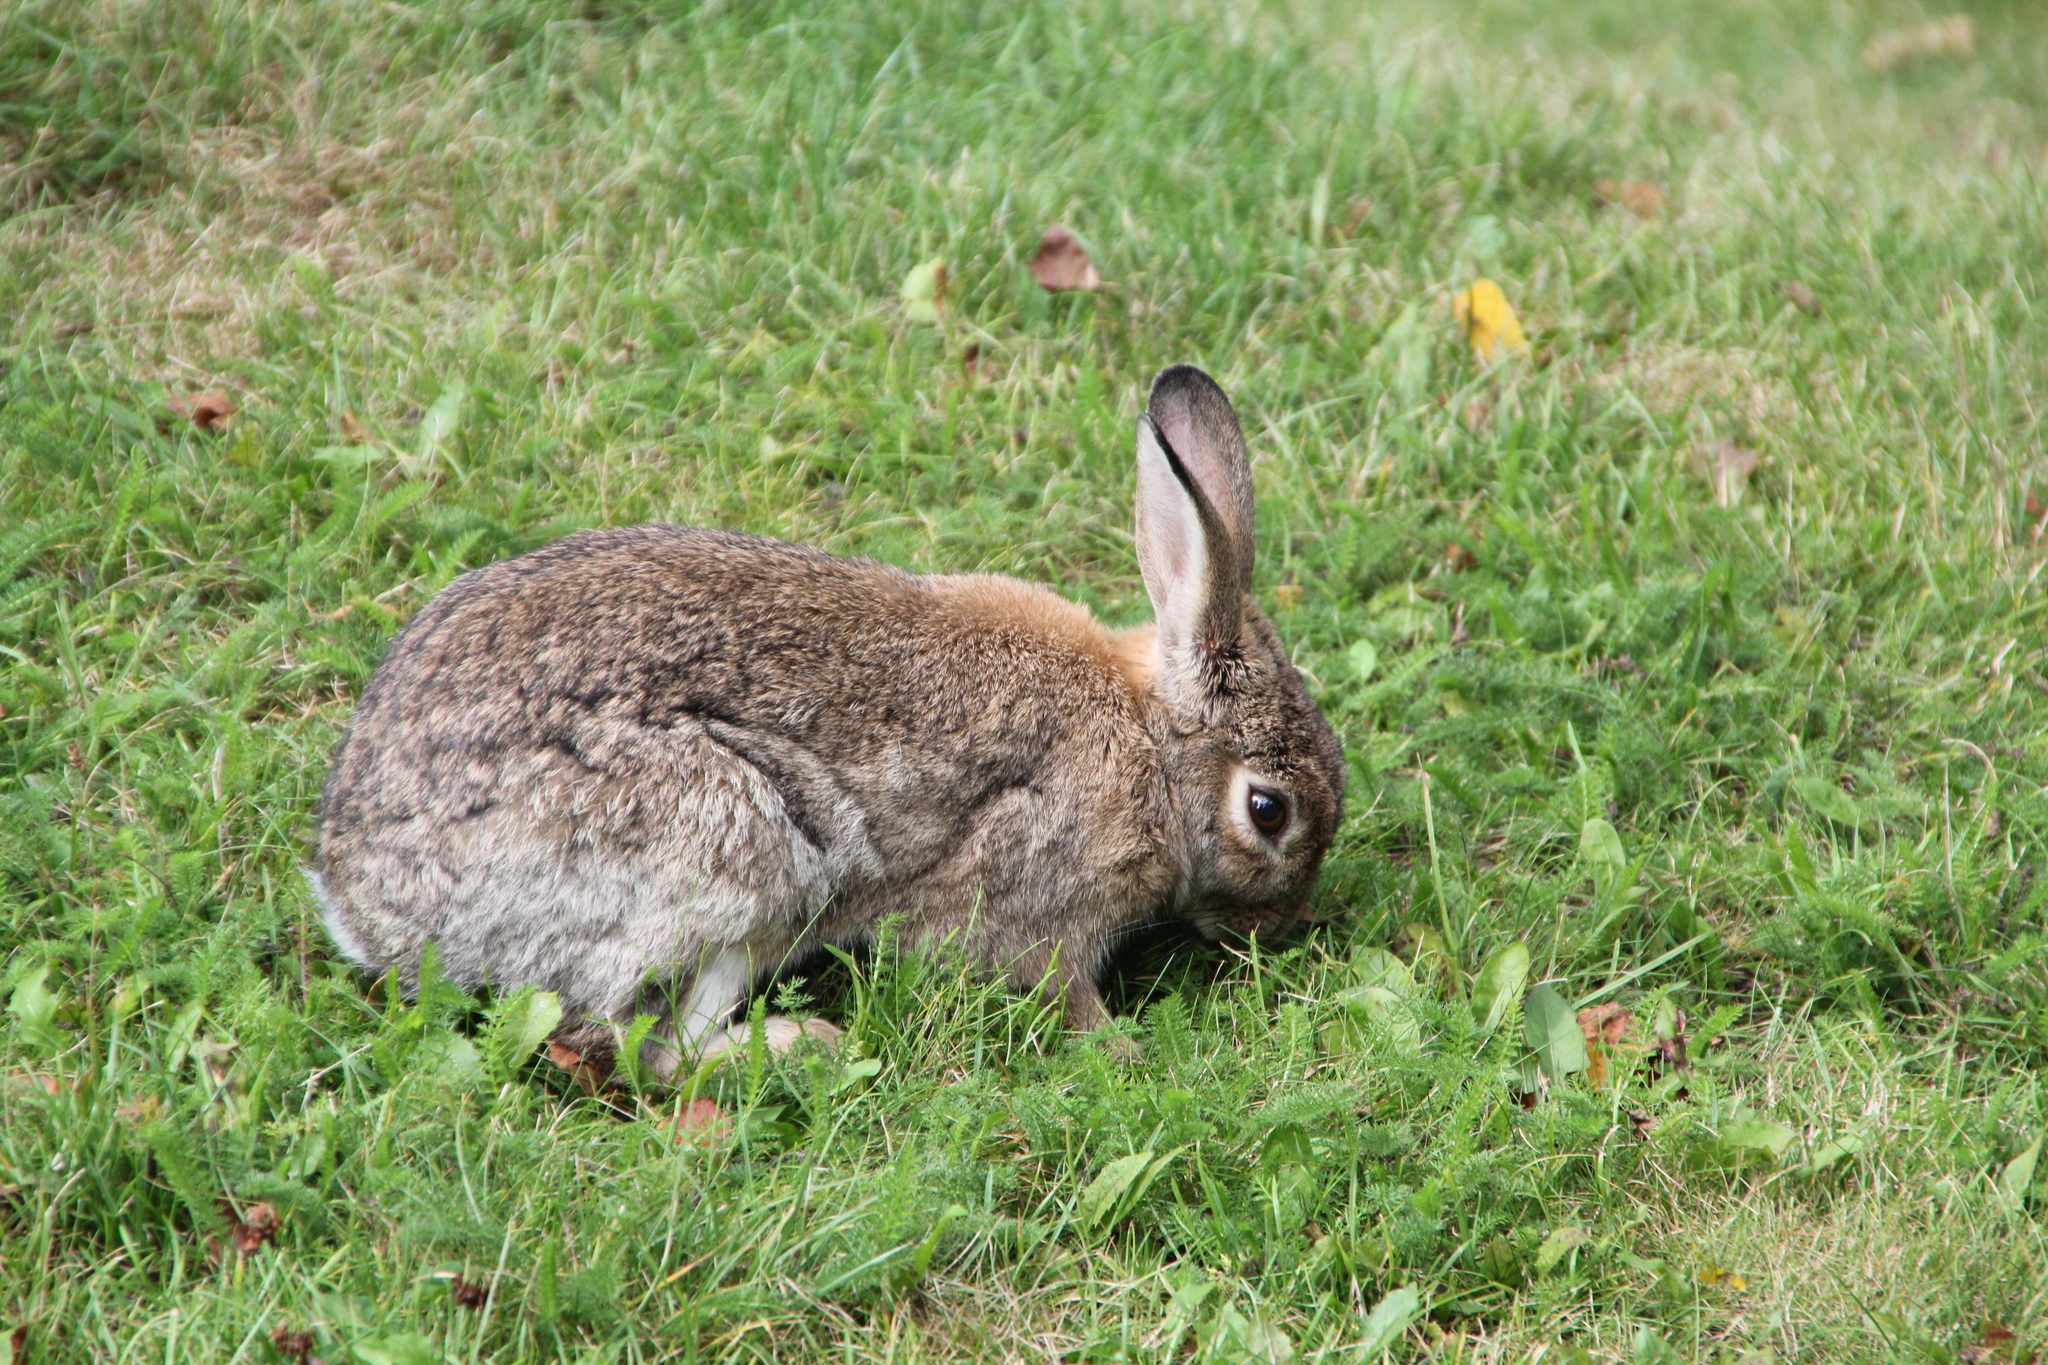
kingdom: Animalia
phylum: Chordata
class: Mammalia
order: Lagomorpha
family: Leporidae
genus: Oryctolagus
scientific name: Oryctolagus cuniculus
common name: European rabbit
